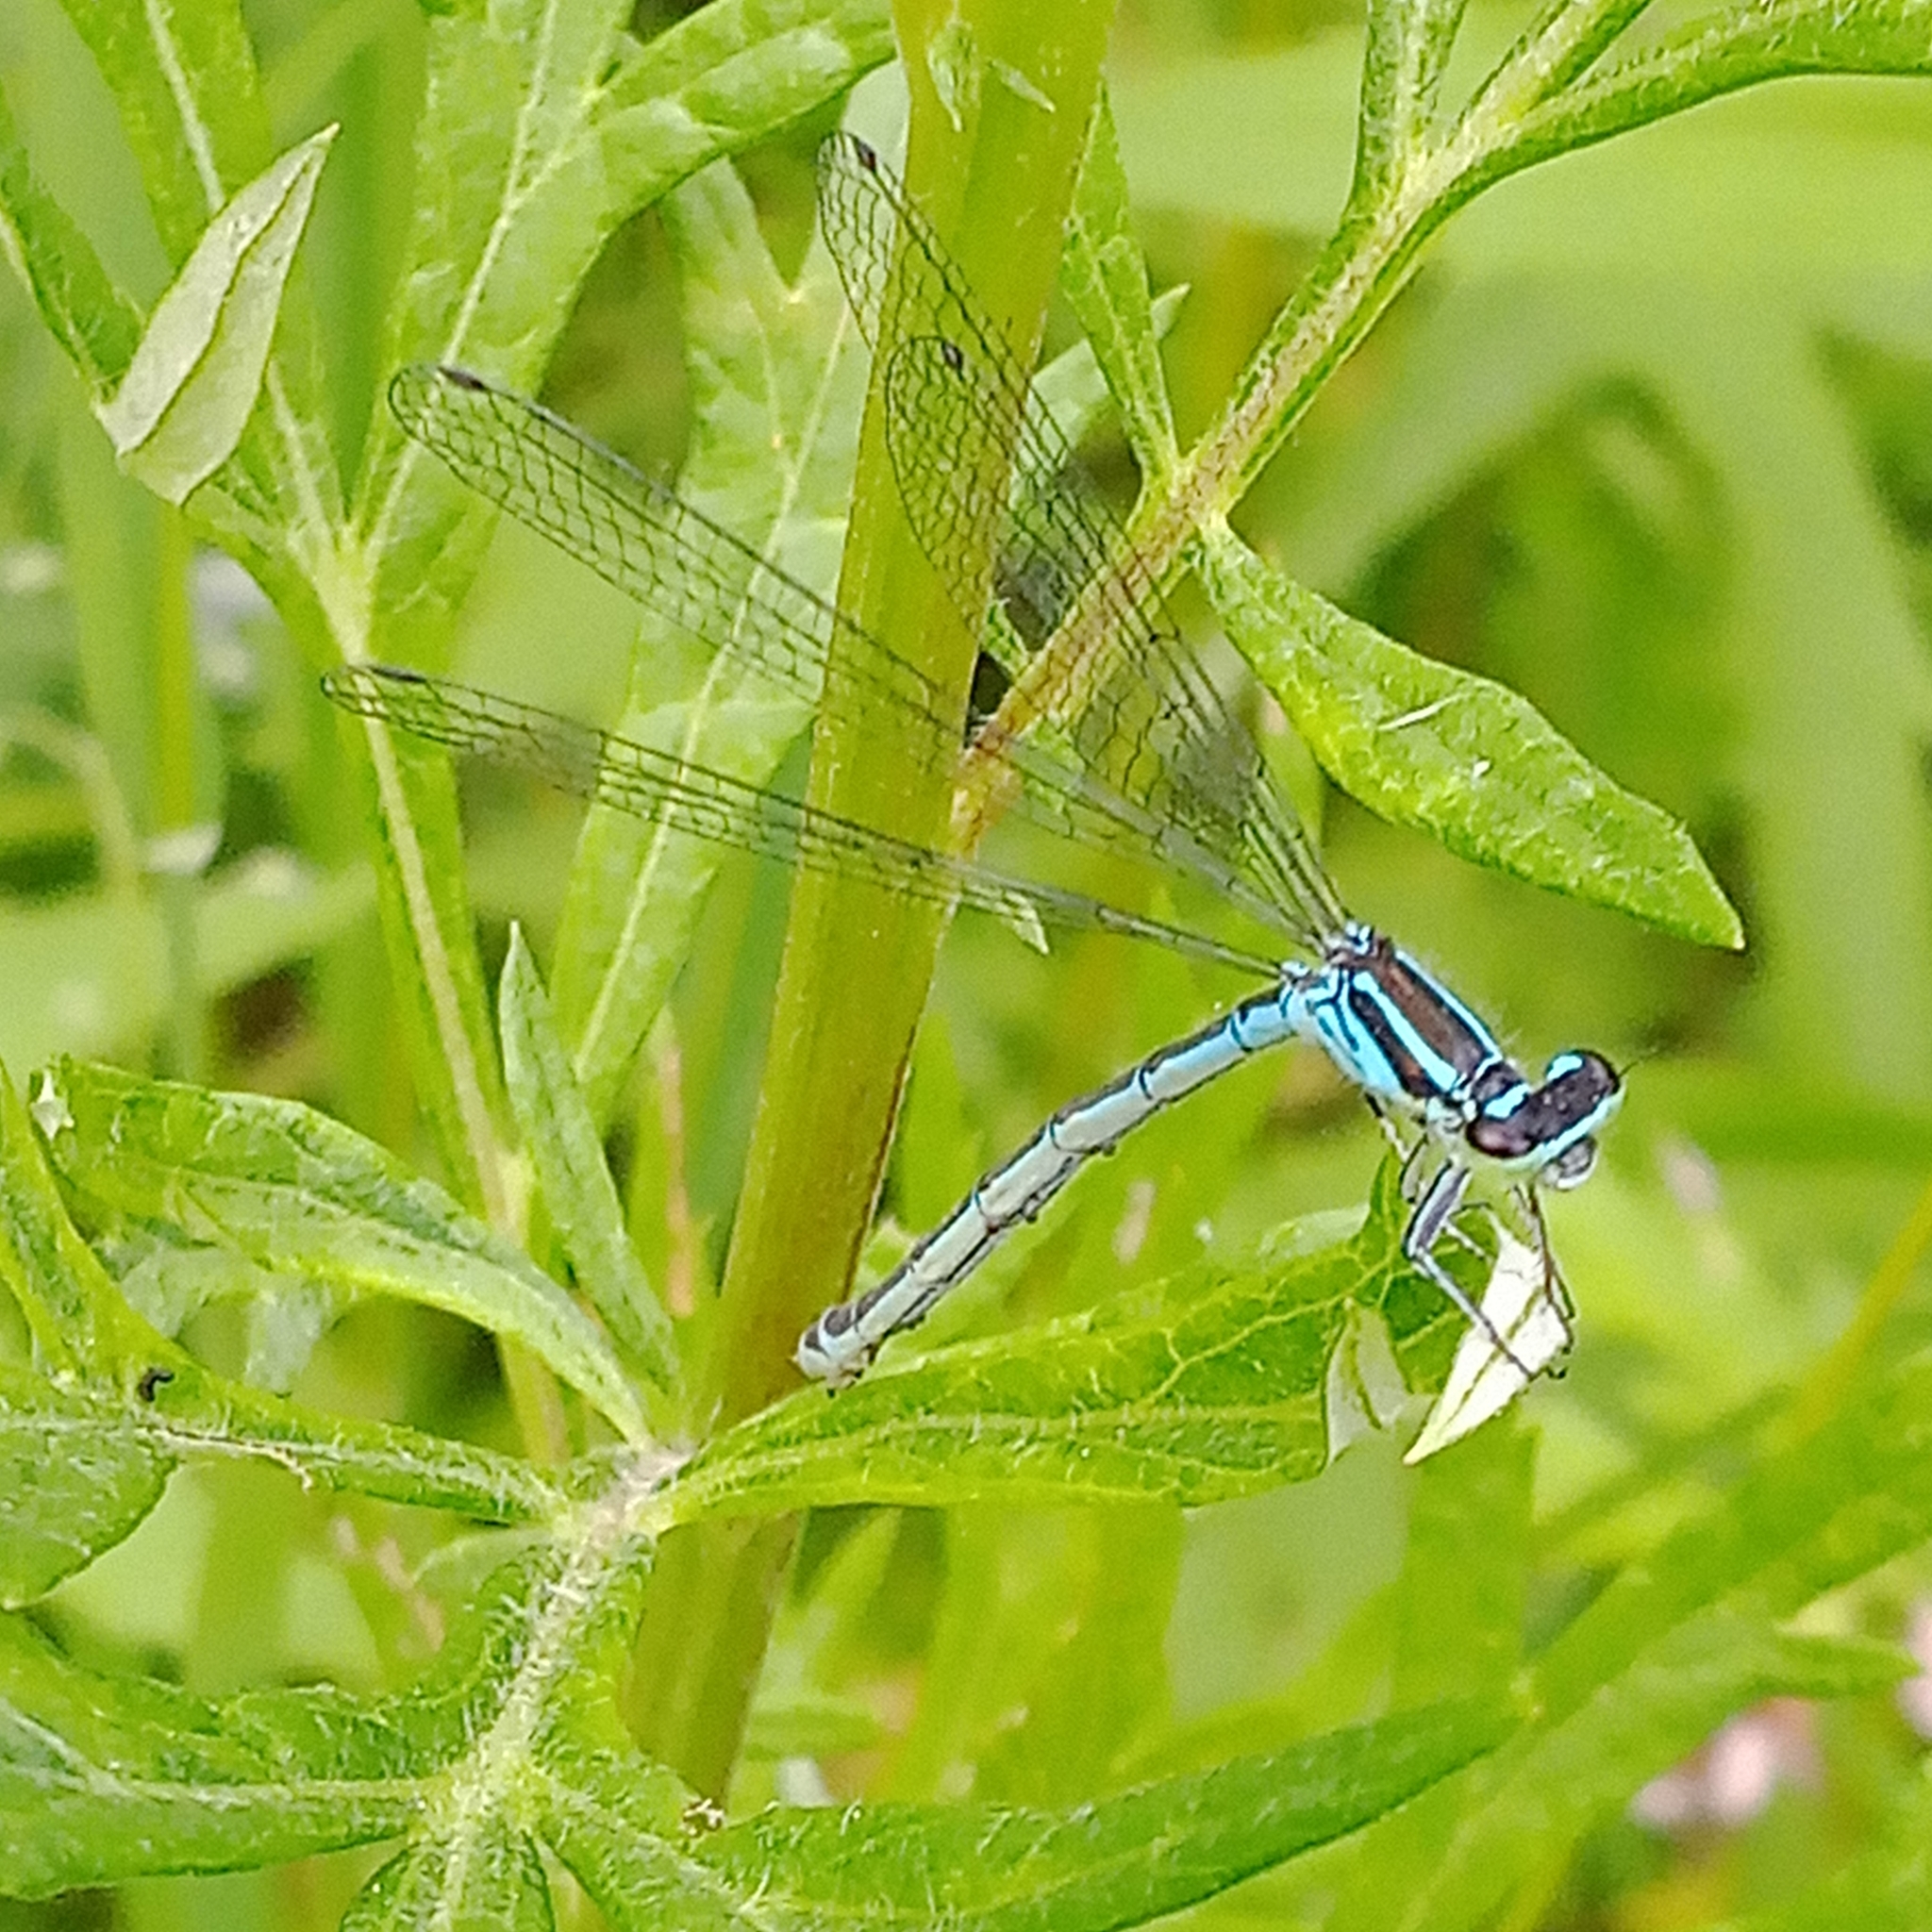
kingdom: Animalia
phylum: Arthropoda
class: Insecta
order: Odonata
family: Coenagrionidae
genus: Coenagrion
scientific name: Coenagrion puella
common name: Azure damselfly
